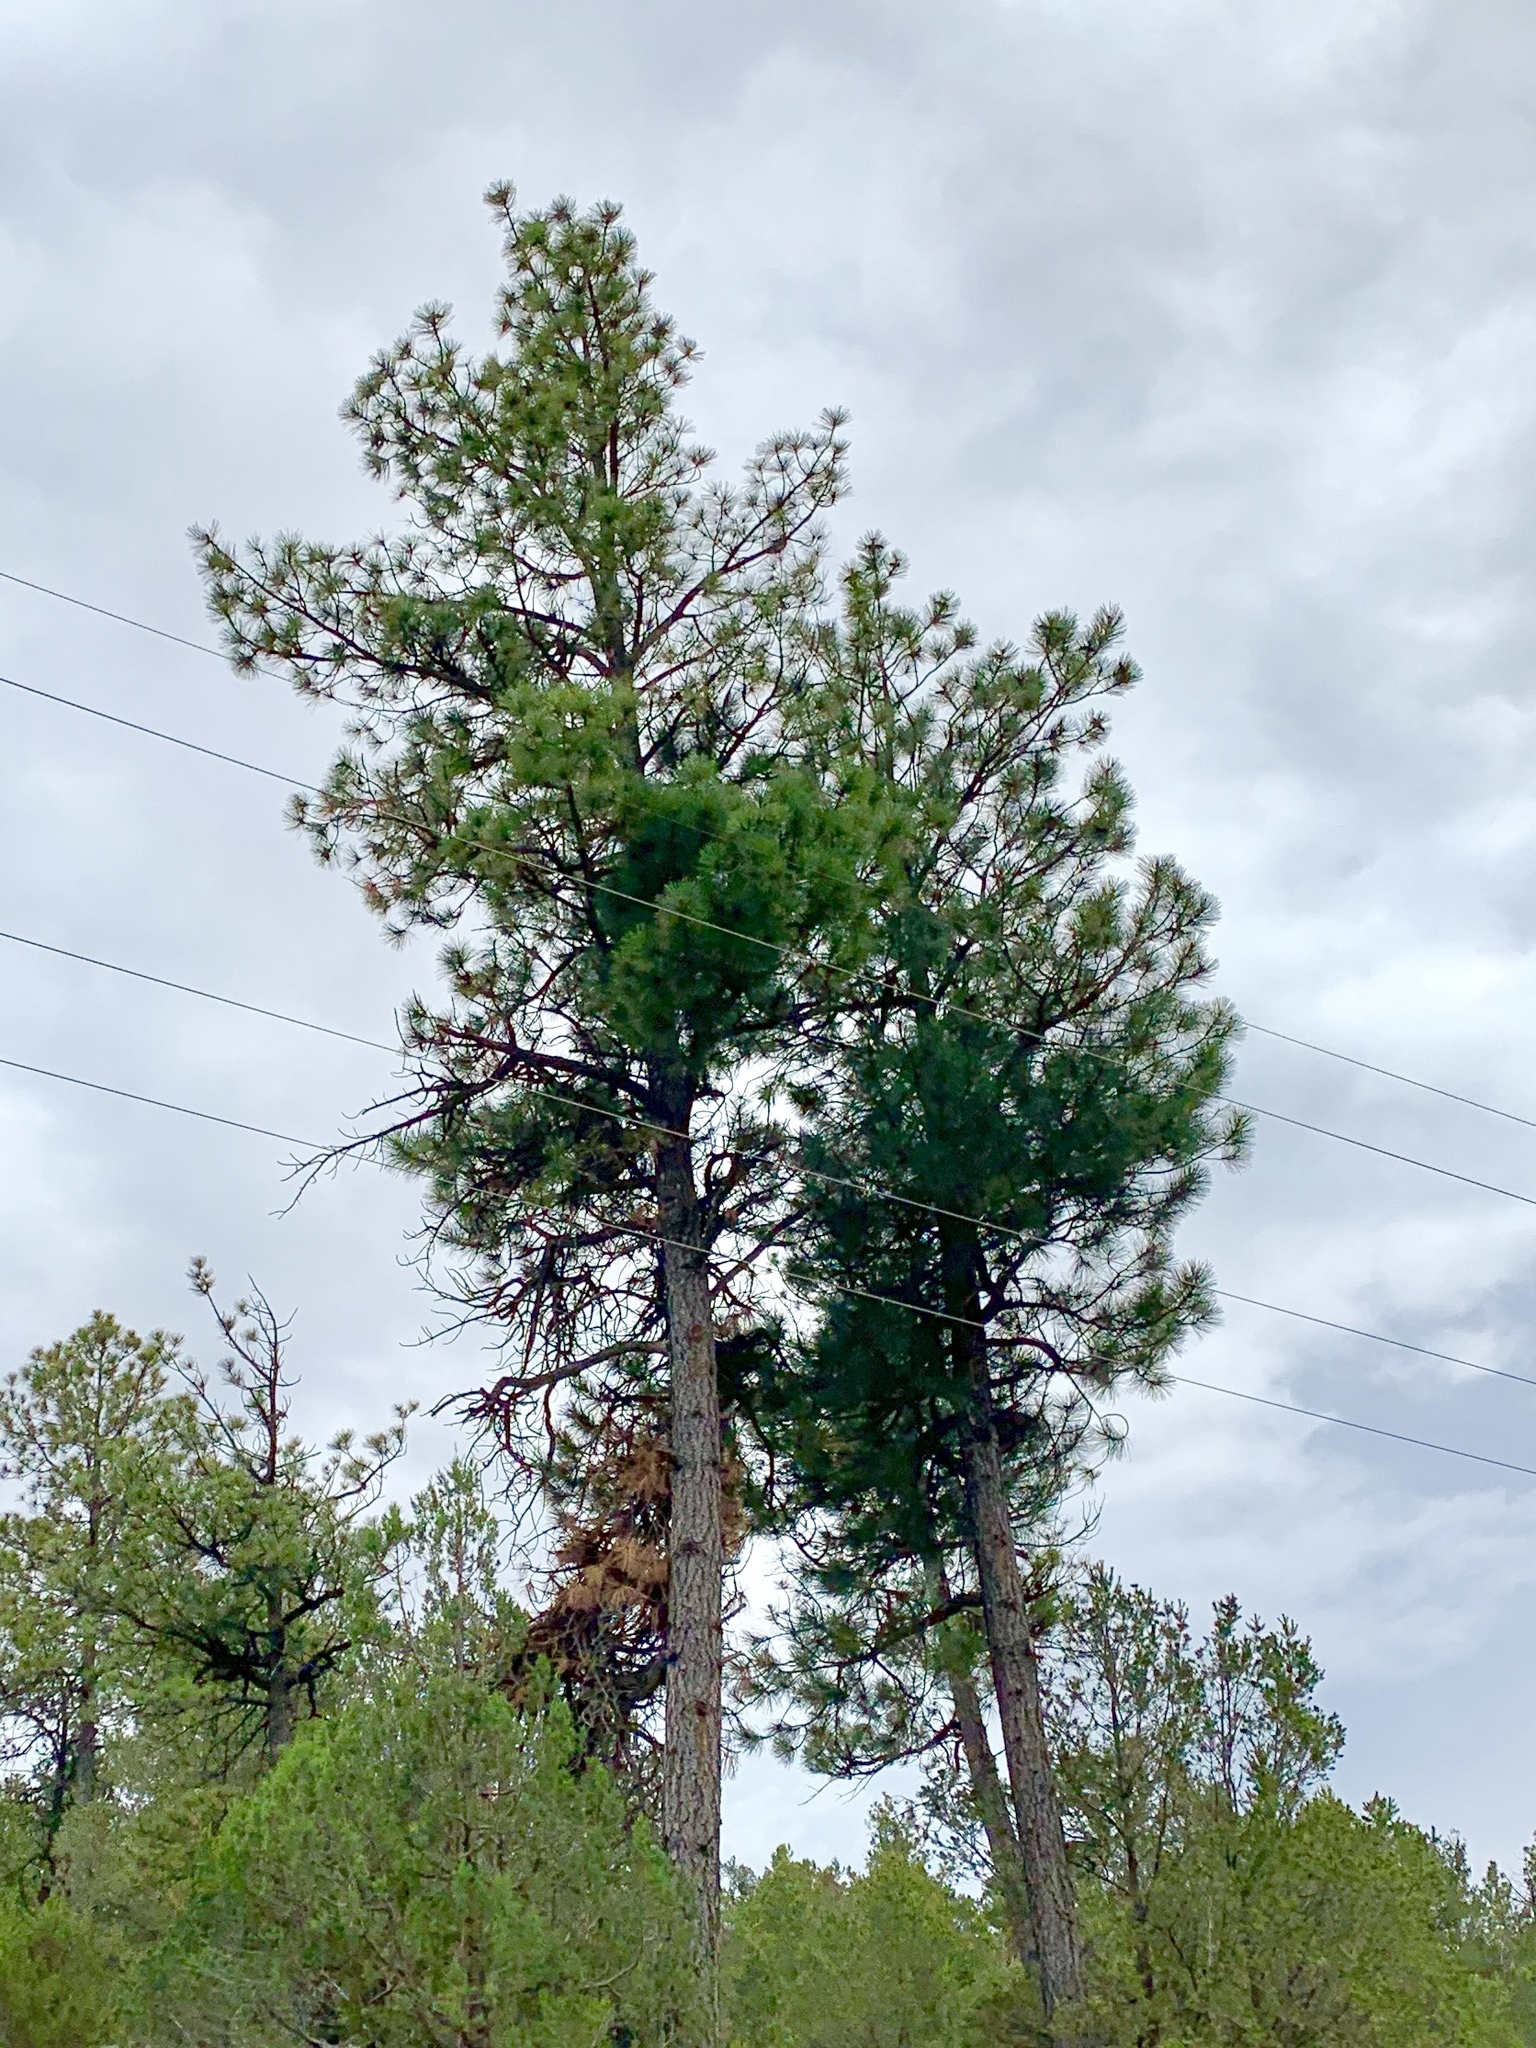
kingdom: Plantae
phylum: Tracheophyta
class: Pinopsida
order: Pinales
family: Pinaceae
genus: Pinus
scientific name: Pinus ponderosa
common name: Western yellow-pine
